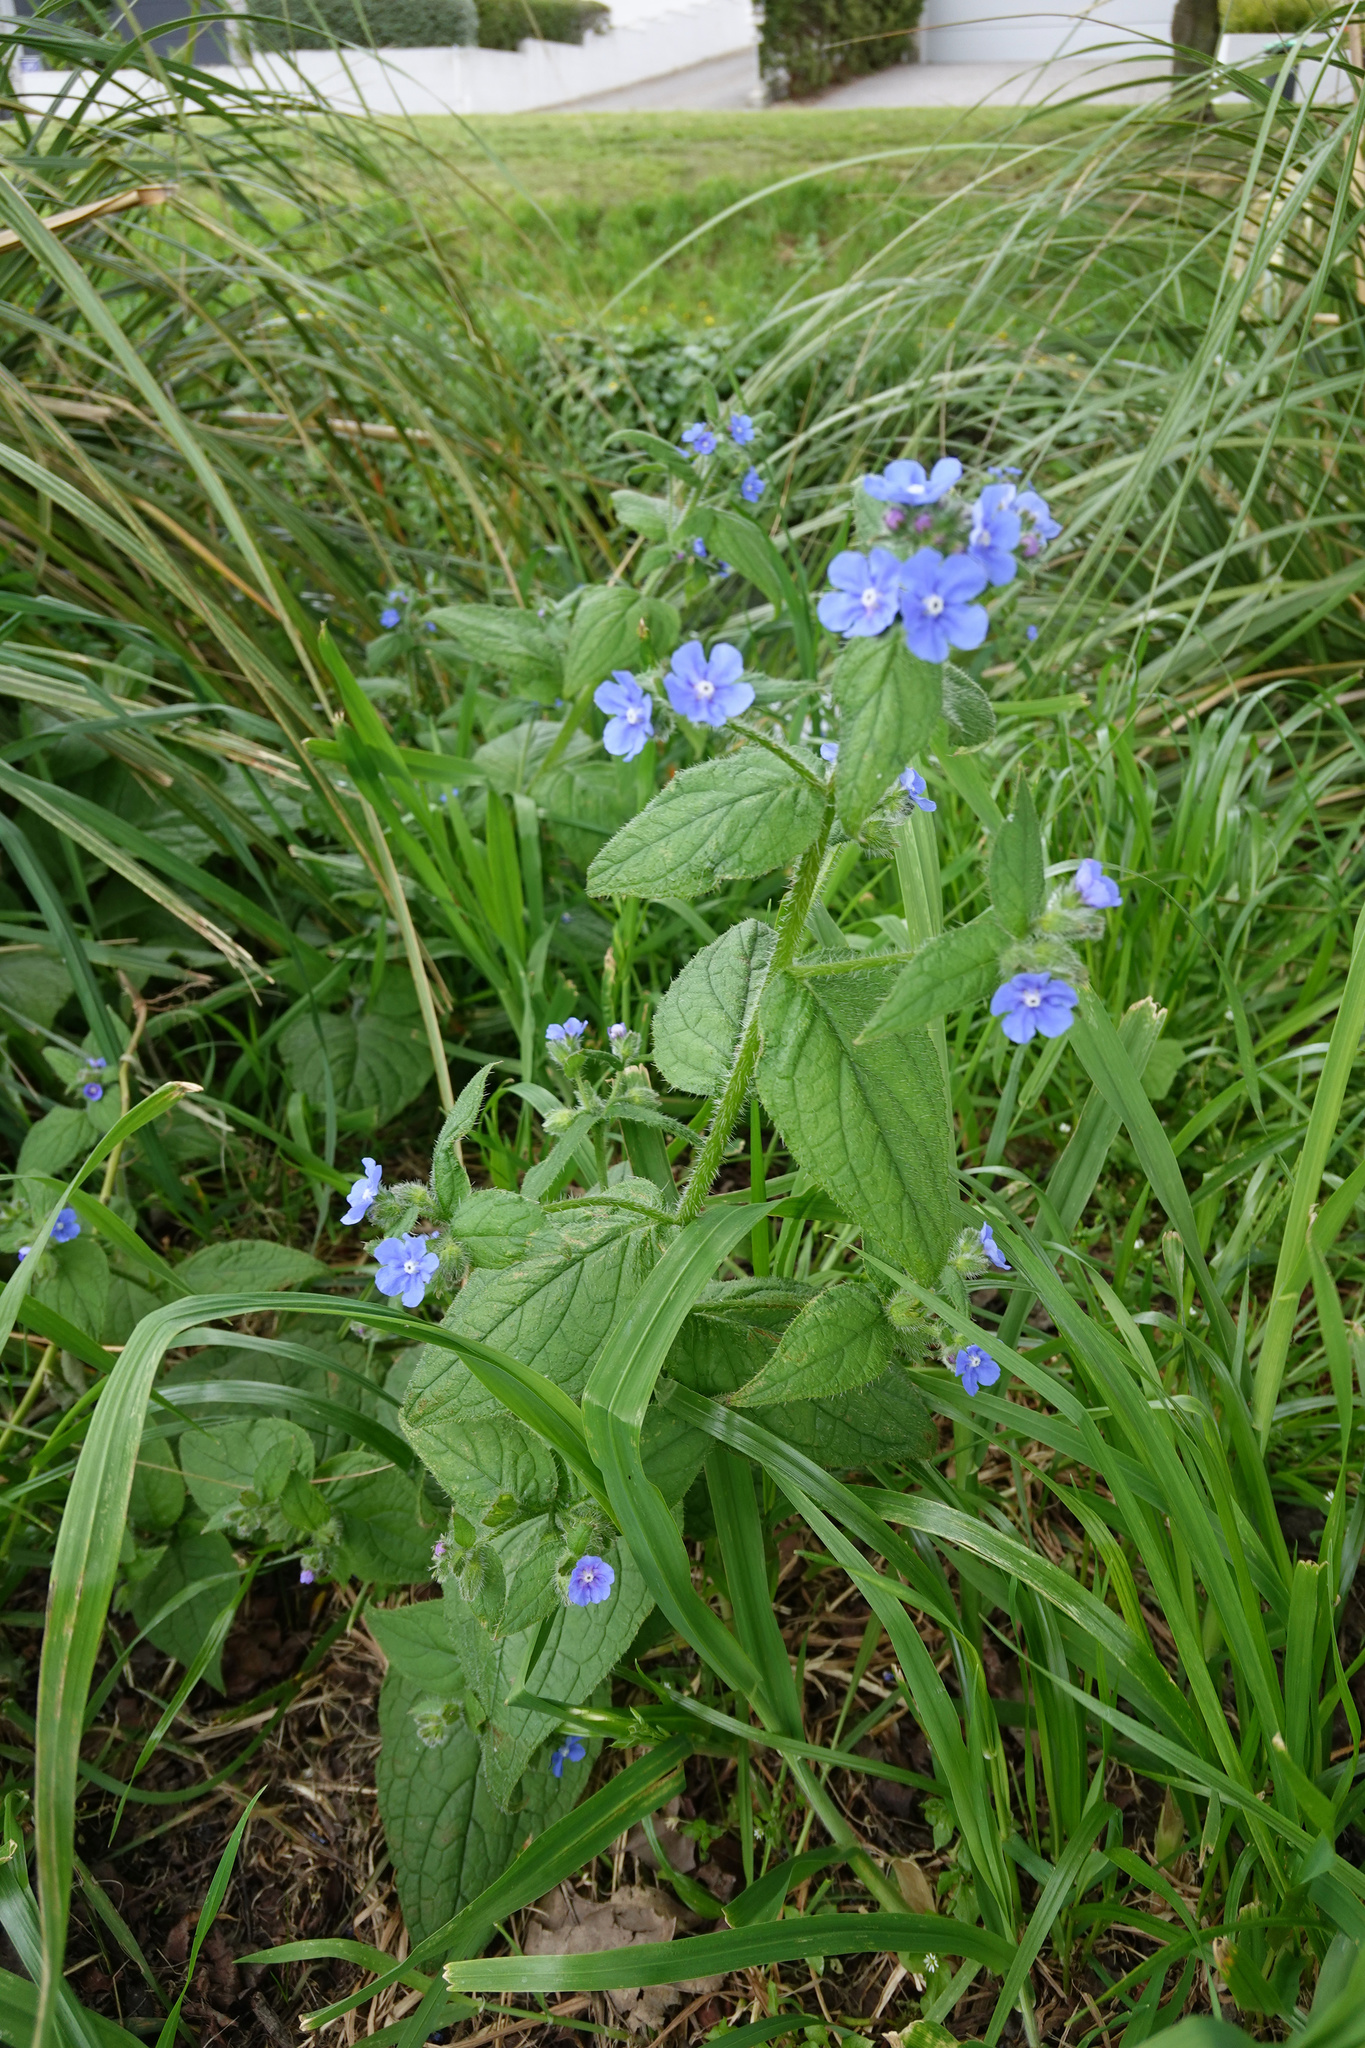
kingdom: Plantae
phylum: Tracheophyta
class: Magnoliopsida
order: Boraginales
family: Boraginaceae
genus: Pentaglottis
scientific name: Pentaglottis sempervirens
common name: Green alkanet
